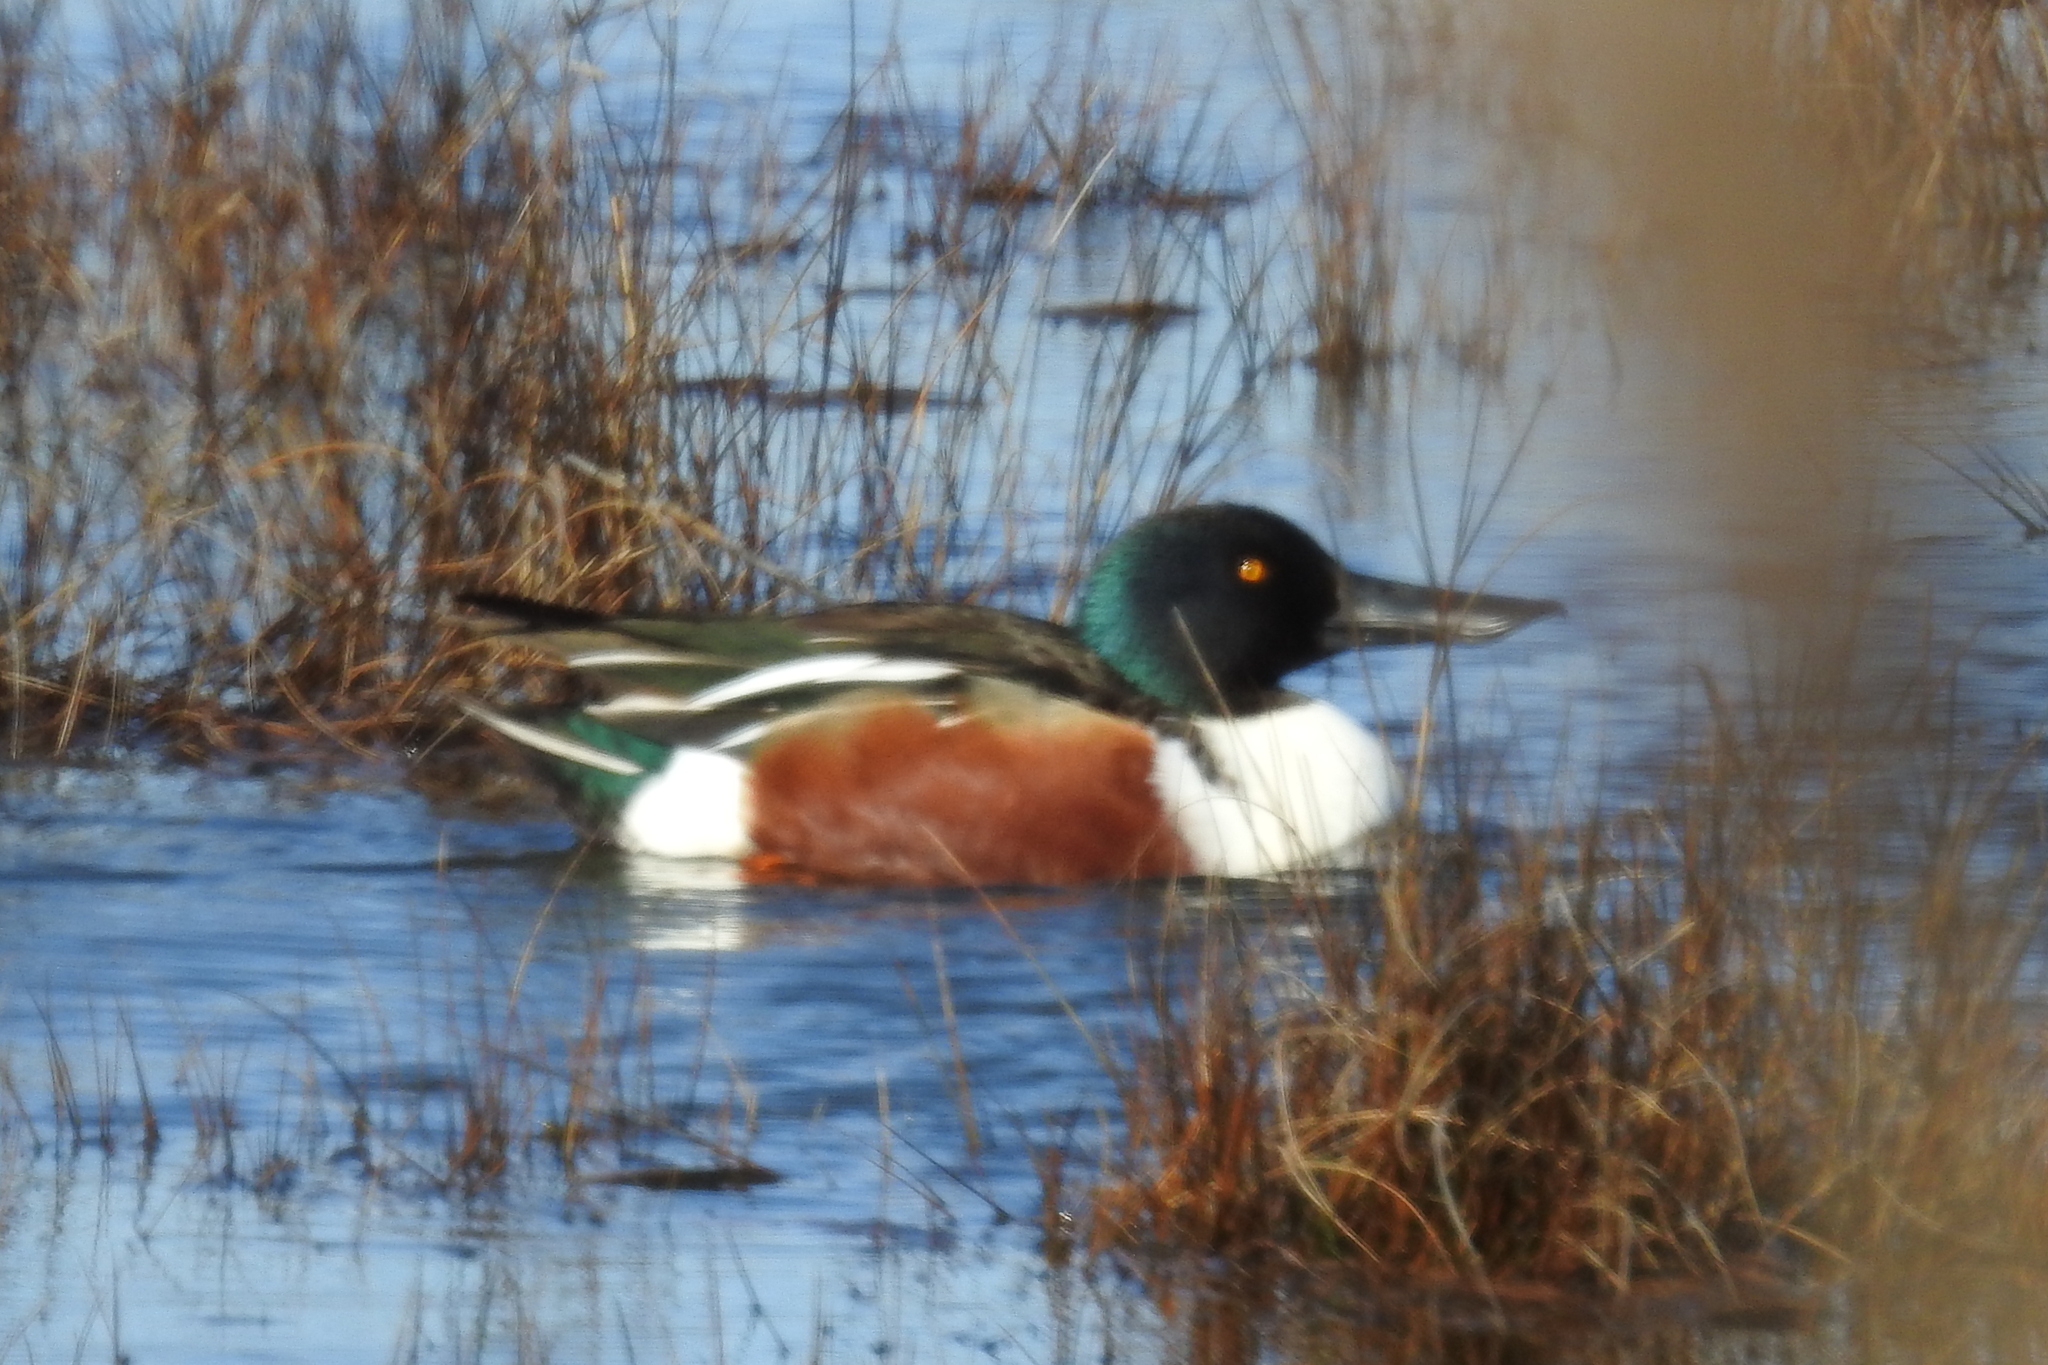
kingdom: Animalia
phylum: Chordata
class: Aves
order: Anseriformes
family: Anatidae
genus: Spatula
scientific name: Spatula clypeata
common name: Northern shoveler
